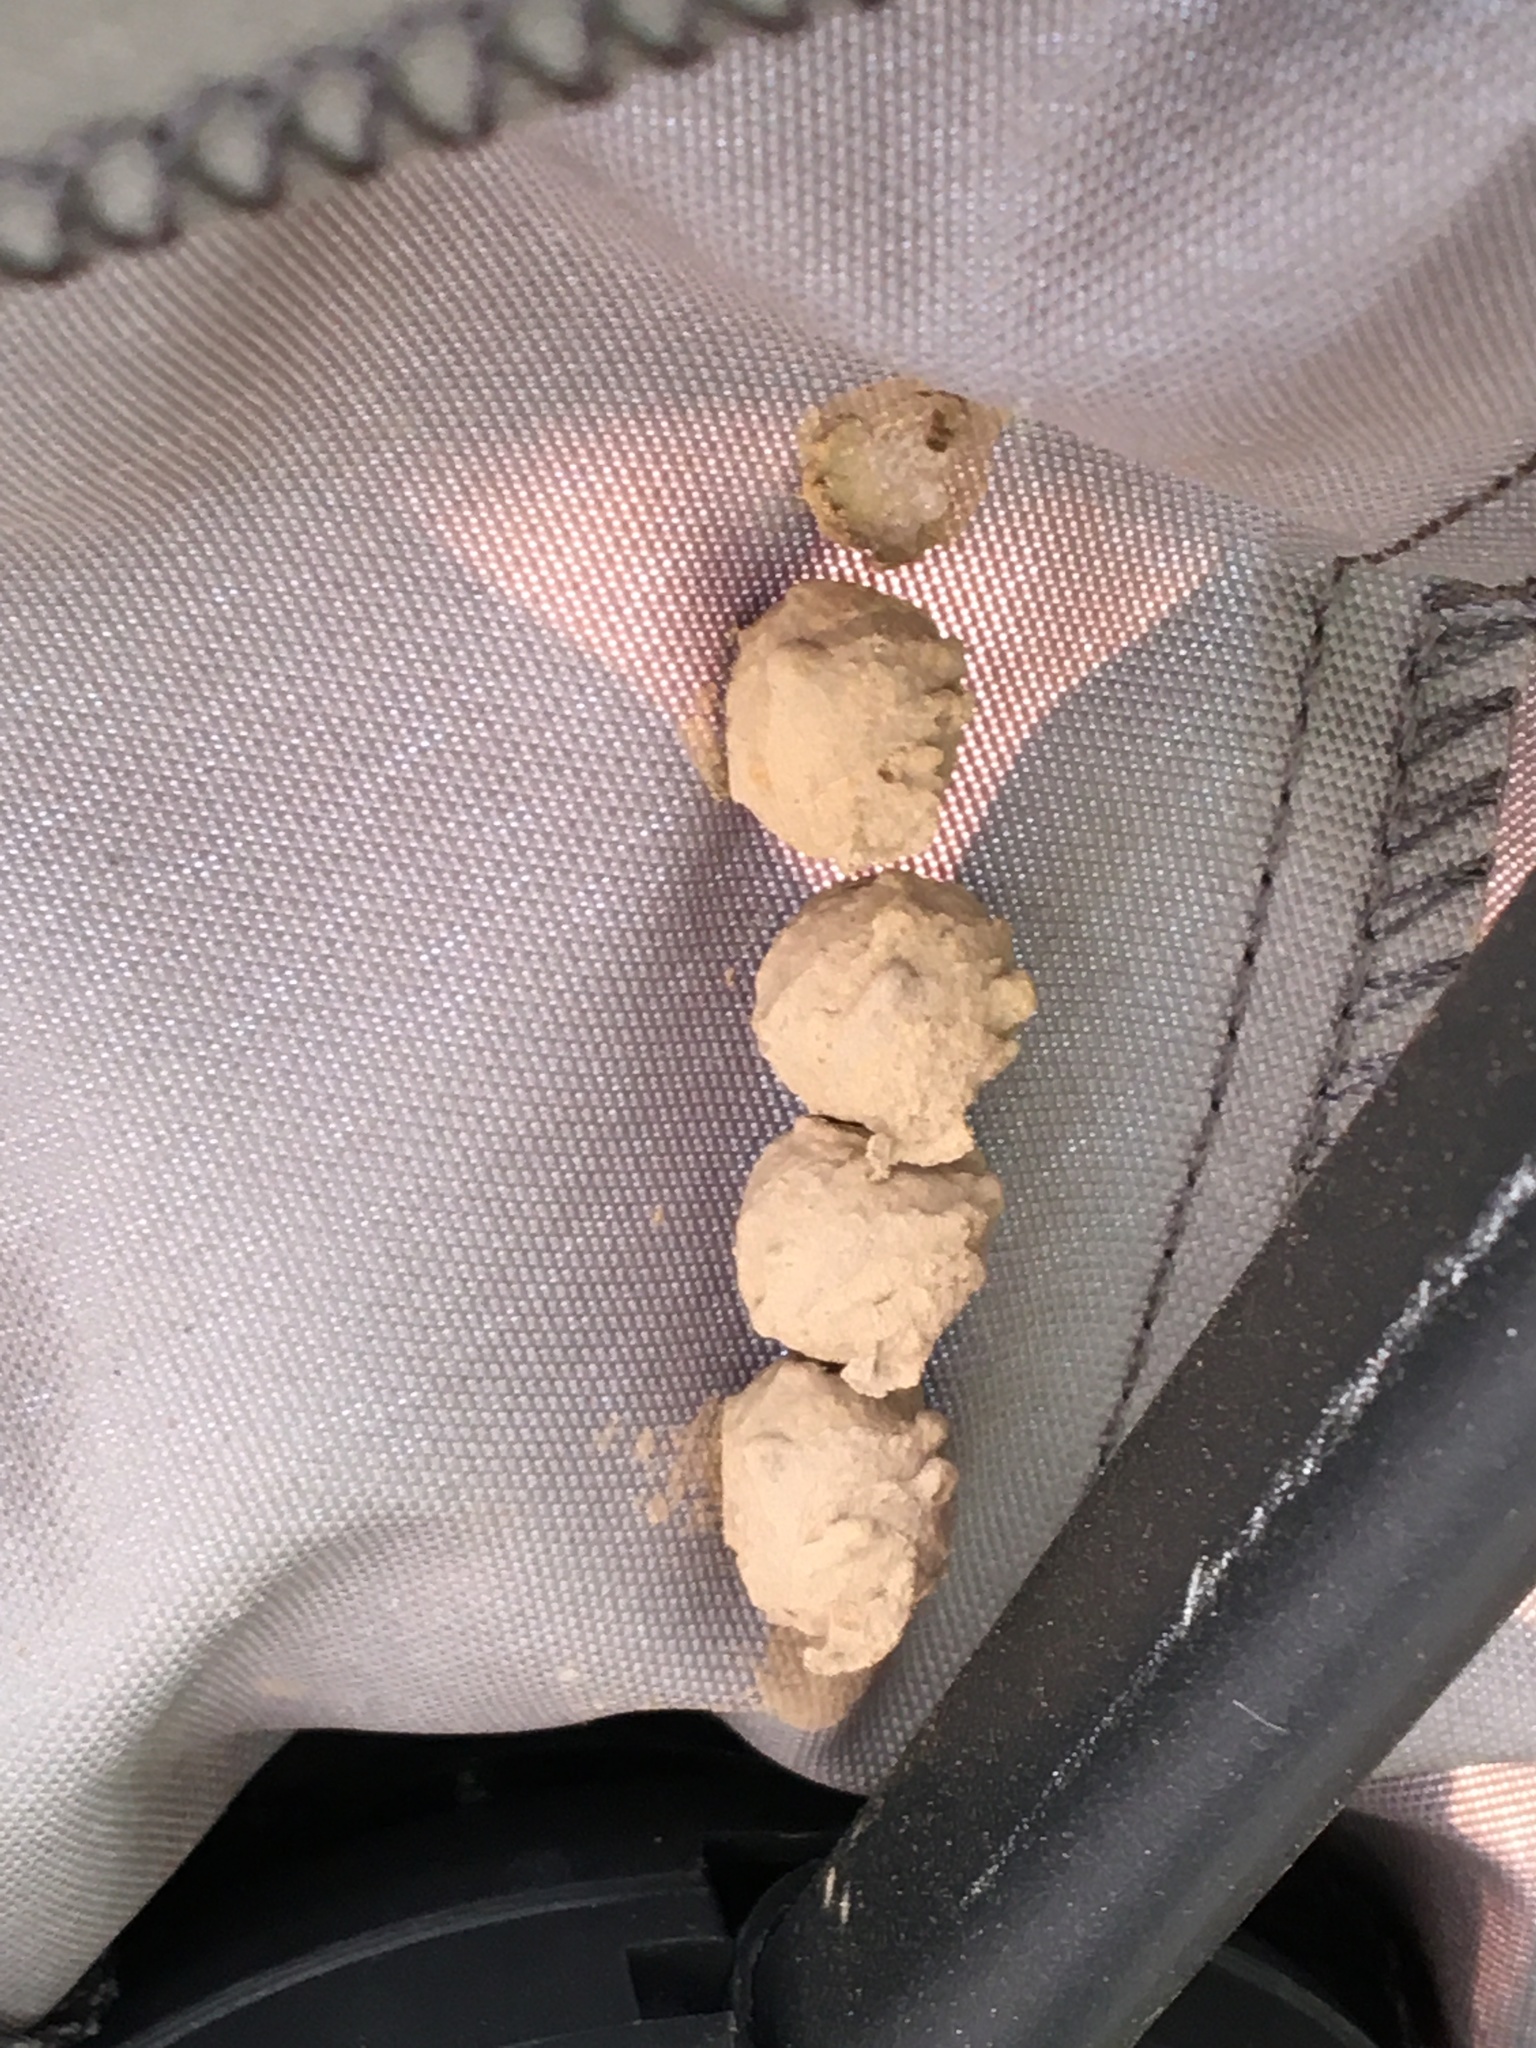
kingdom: Animalia
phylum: Arthropoda
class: Insecta
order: Hymenoptera
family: Vespidae
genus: Eumenes
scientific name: Eumenes
